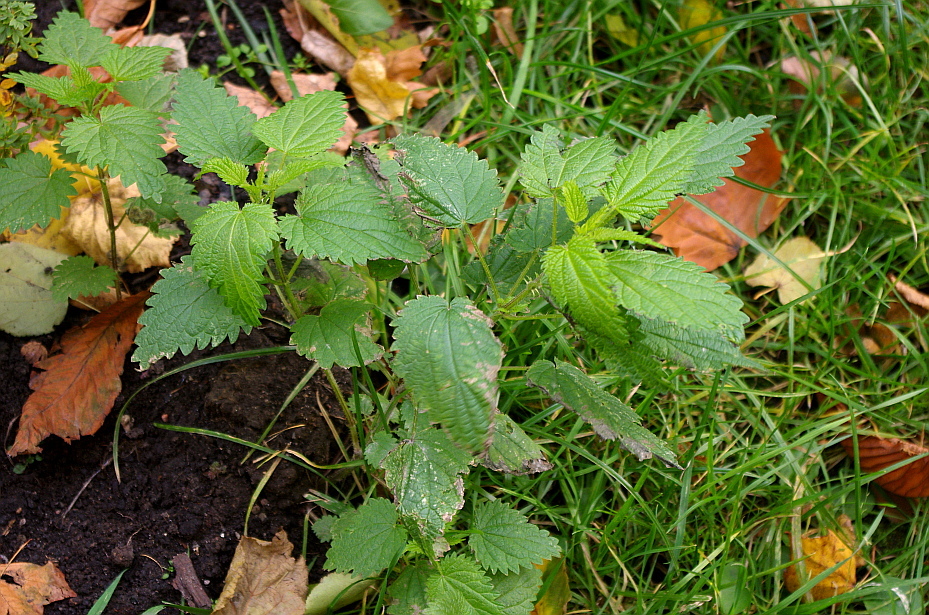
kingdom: Plantae
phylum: Tracheophyta
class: Magnoliopsida
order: Rosales
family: Urticaceae
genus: Urtica
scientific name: Urtica dioica
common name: Common nettle
